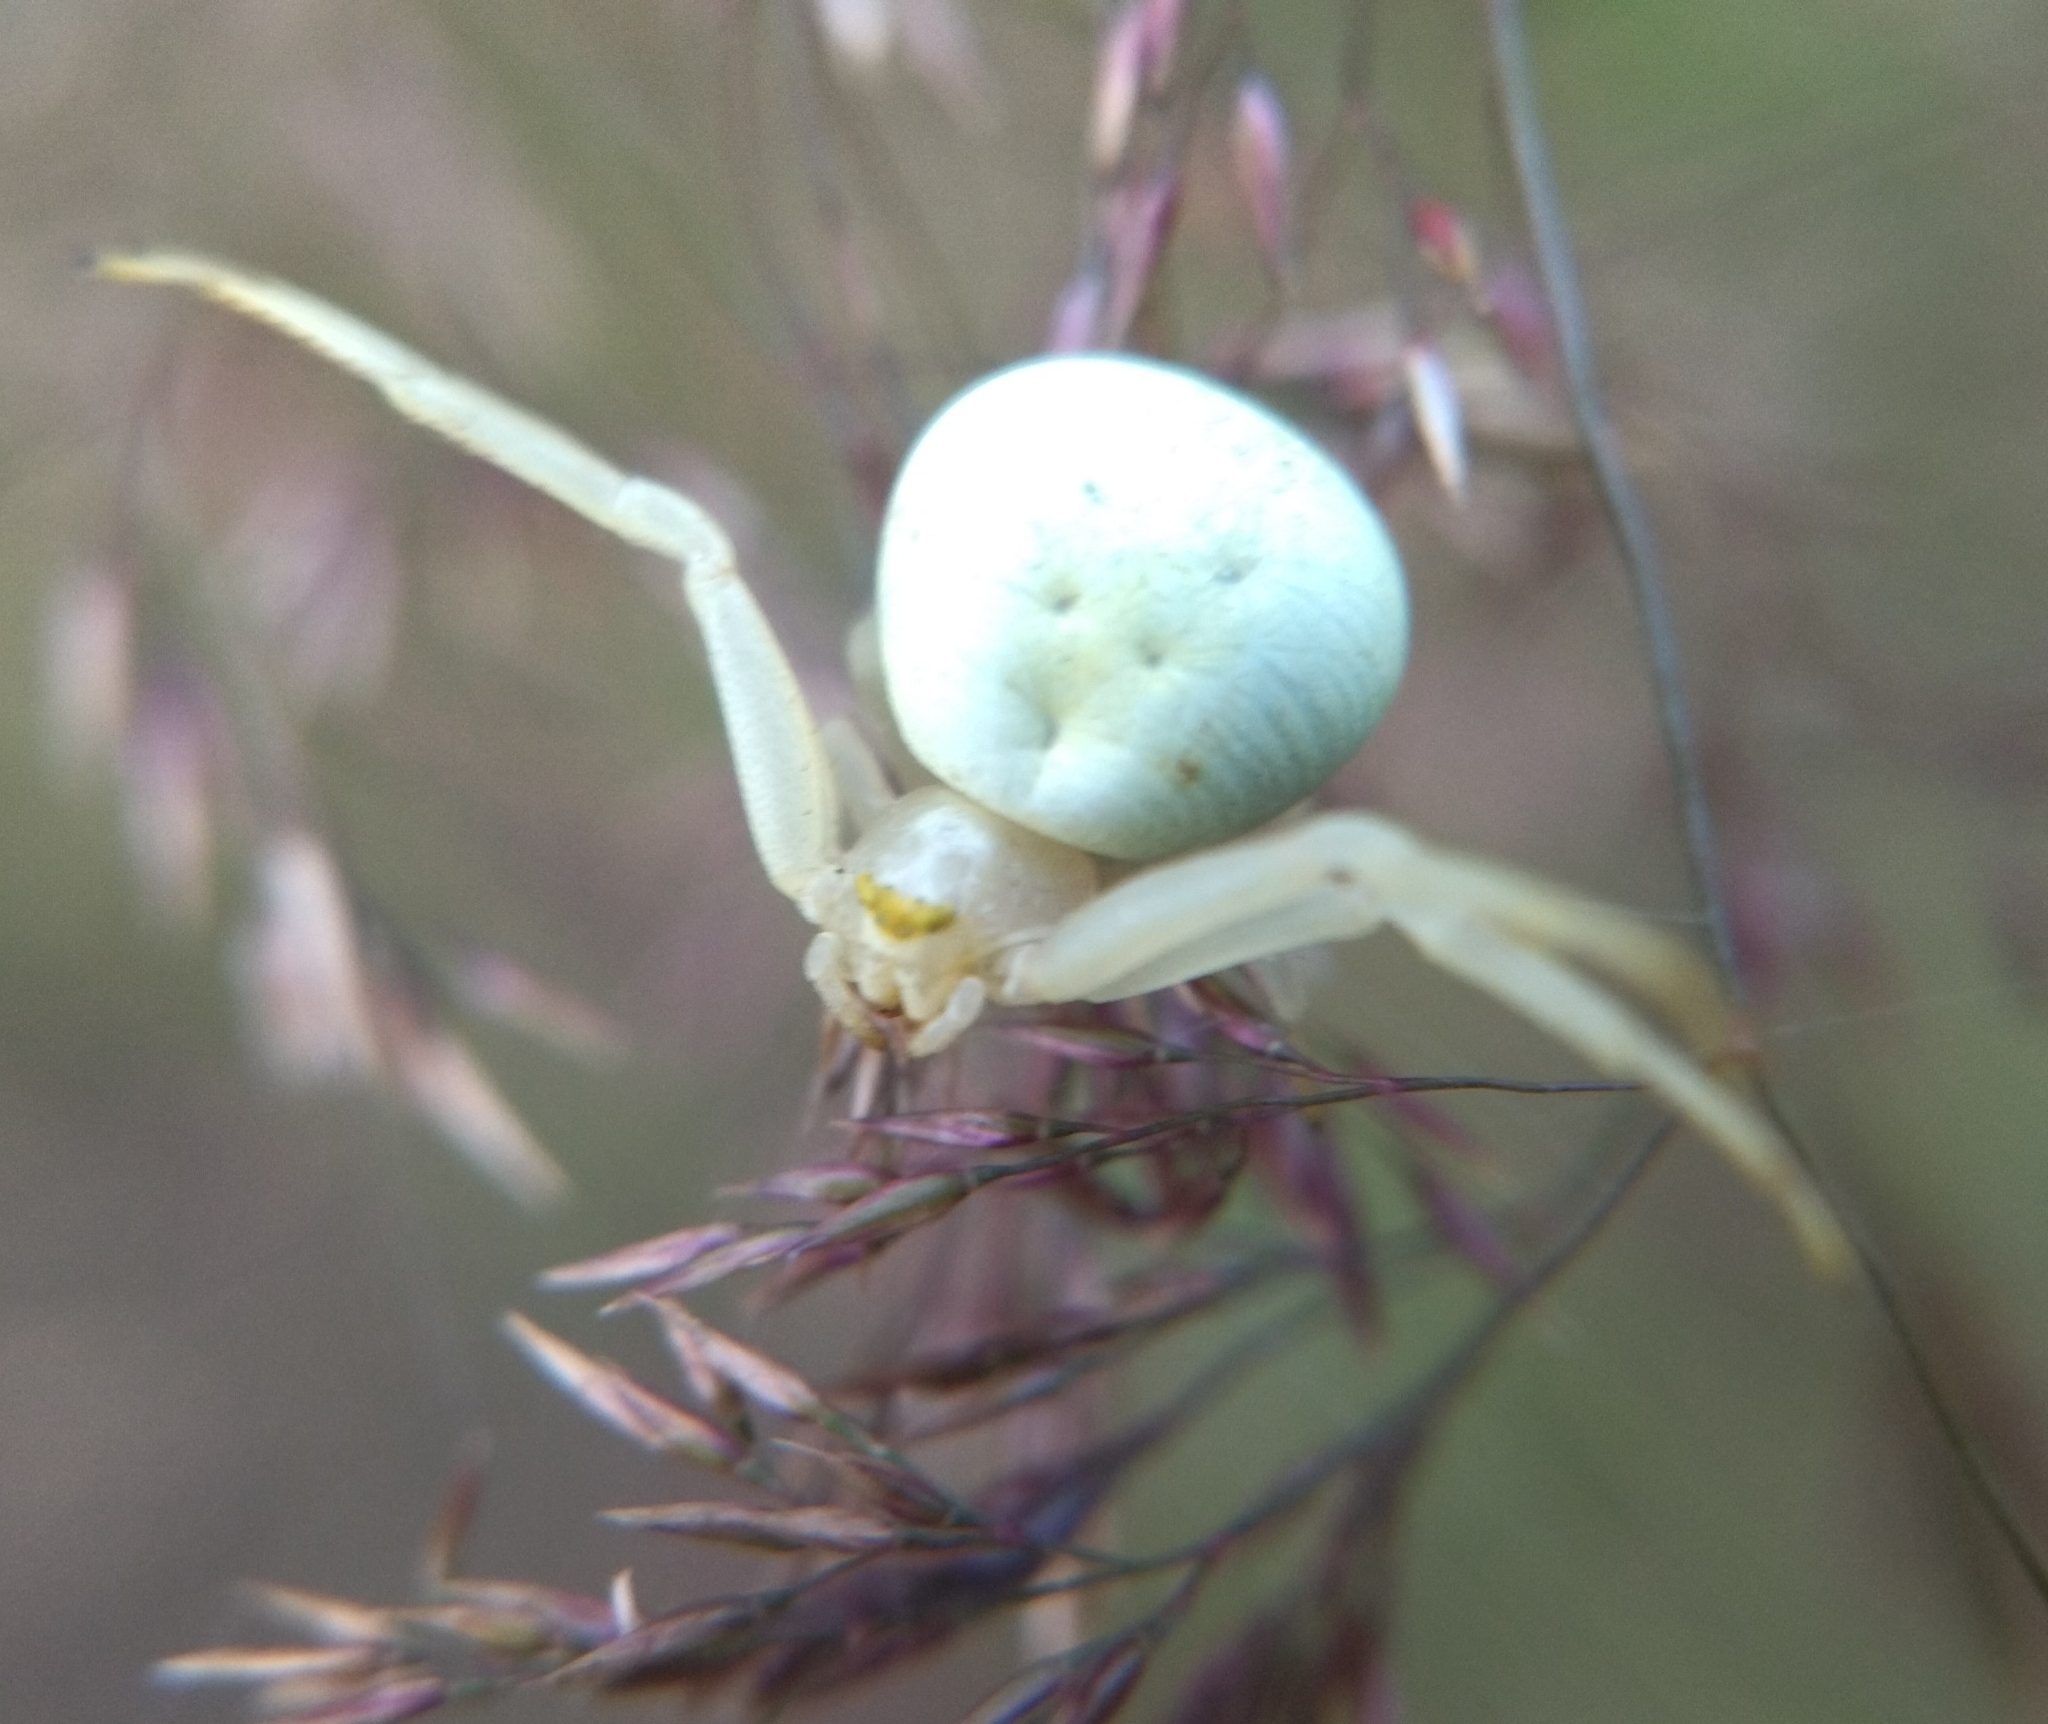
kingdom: Animalia
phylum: Arthropoda
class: Arachnida
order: Araneae
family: Thomisidae
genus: Misumena
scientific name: Misumena vatia
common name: Goldenrod crab spider
